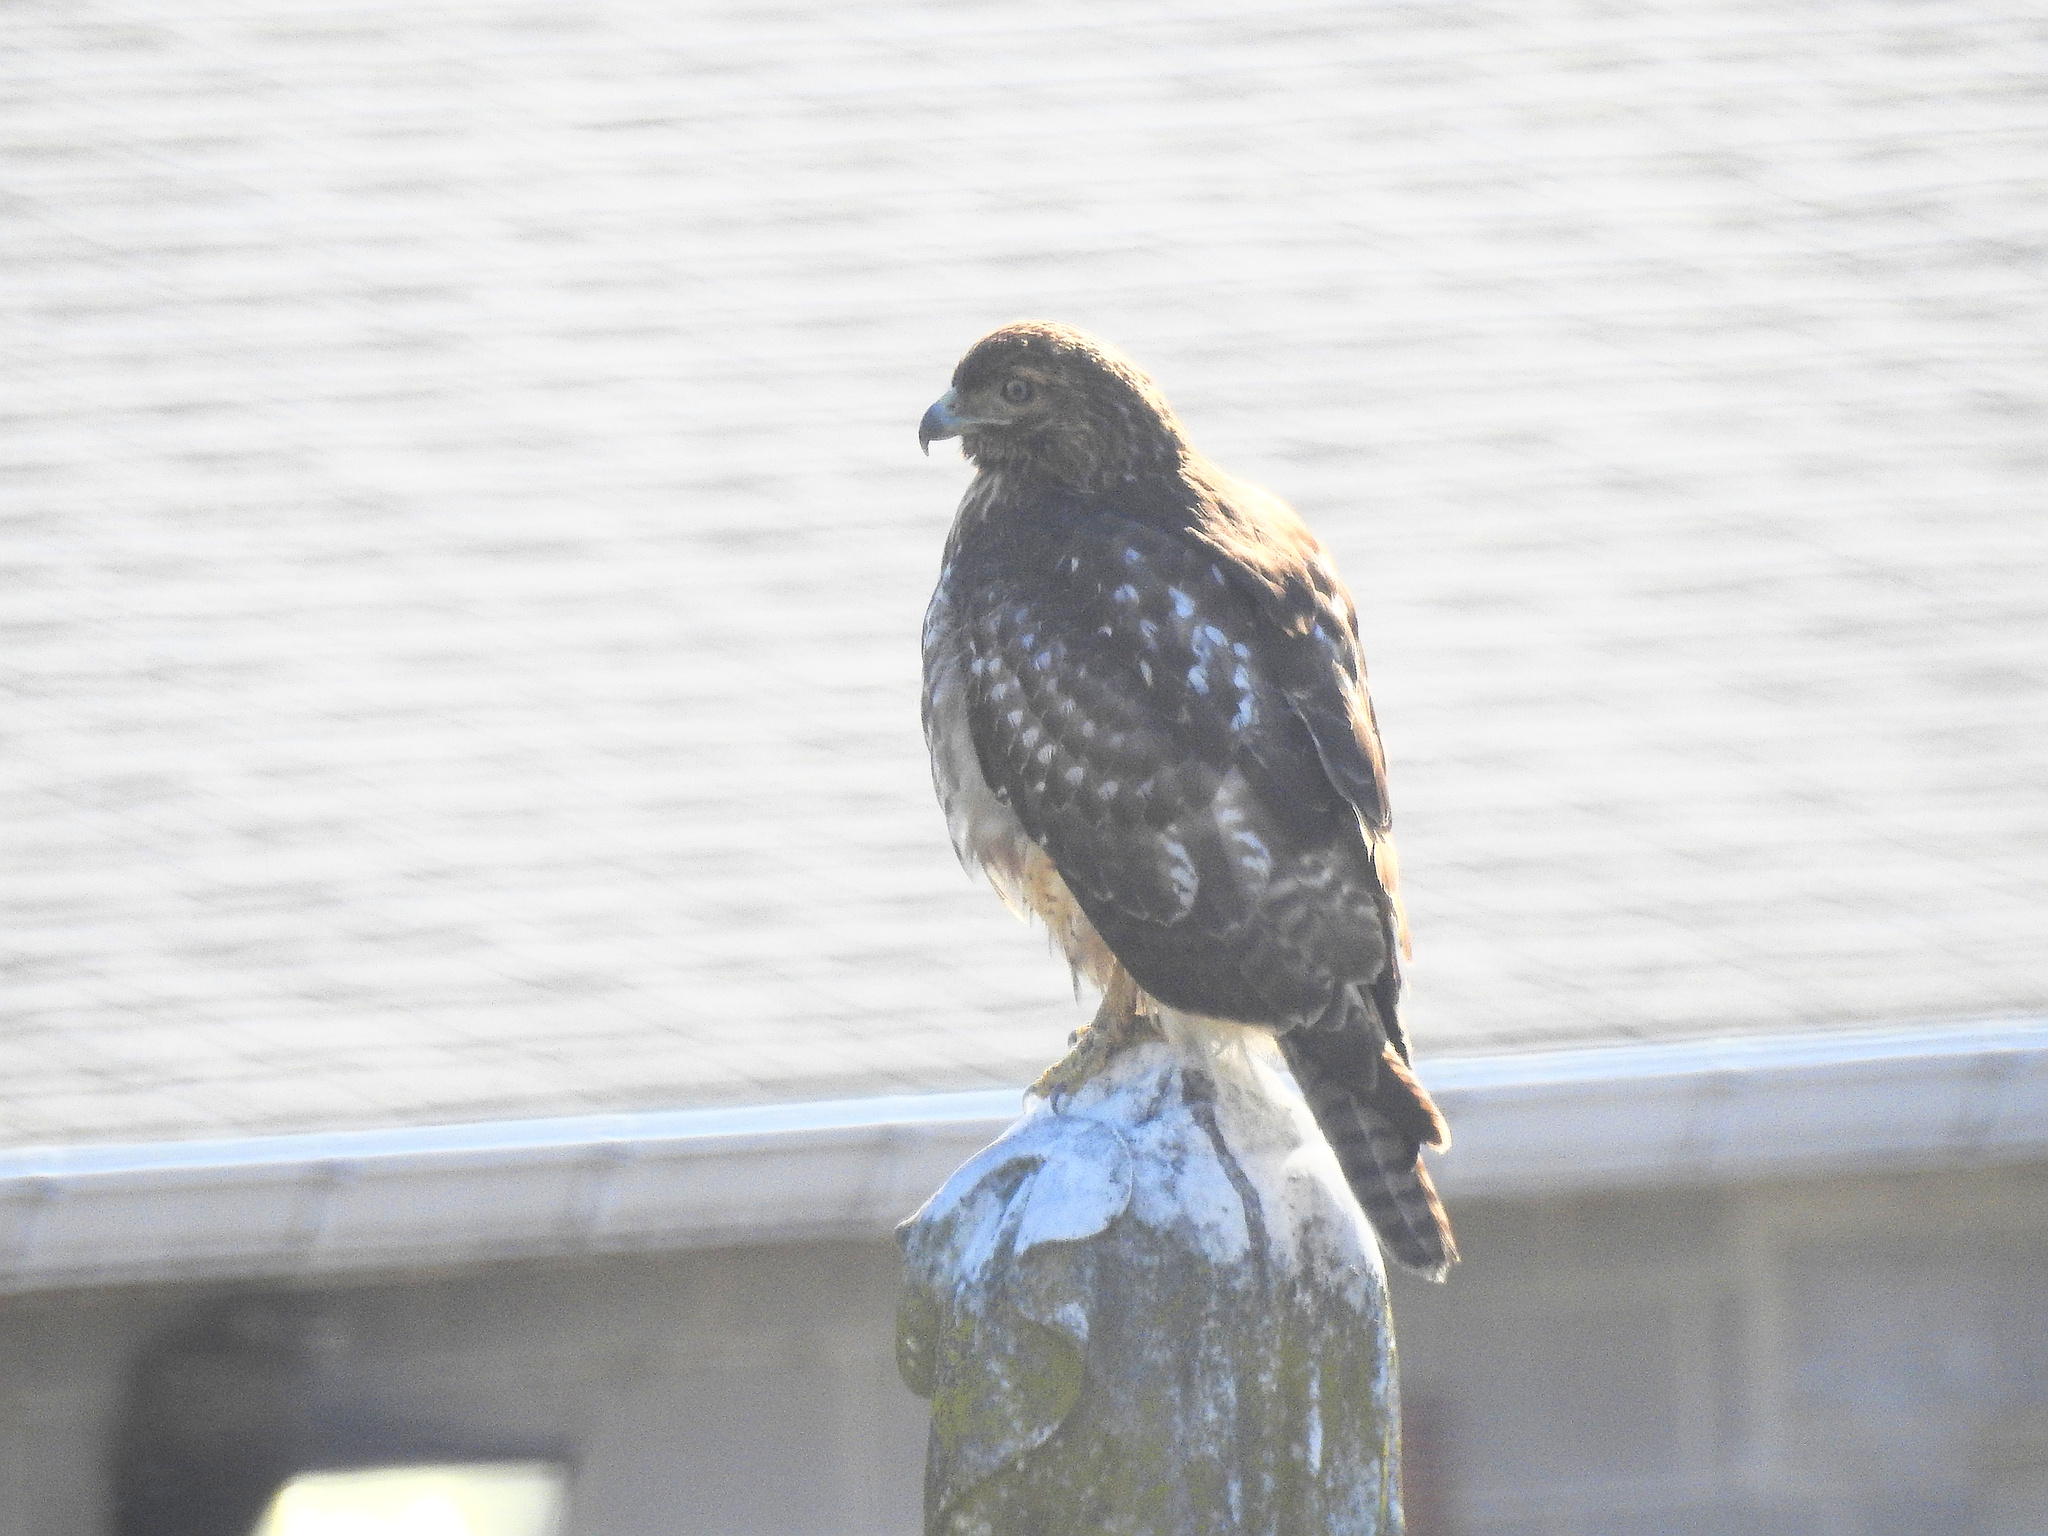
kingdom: Animalia
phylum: Chordata
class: Aves
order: Accipitriformes
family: Accipitridae
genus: Buteo
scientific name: Buteo jamaicensis
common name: Red-tailed hawk
